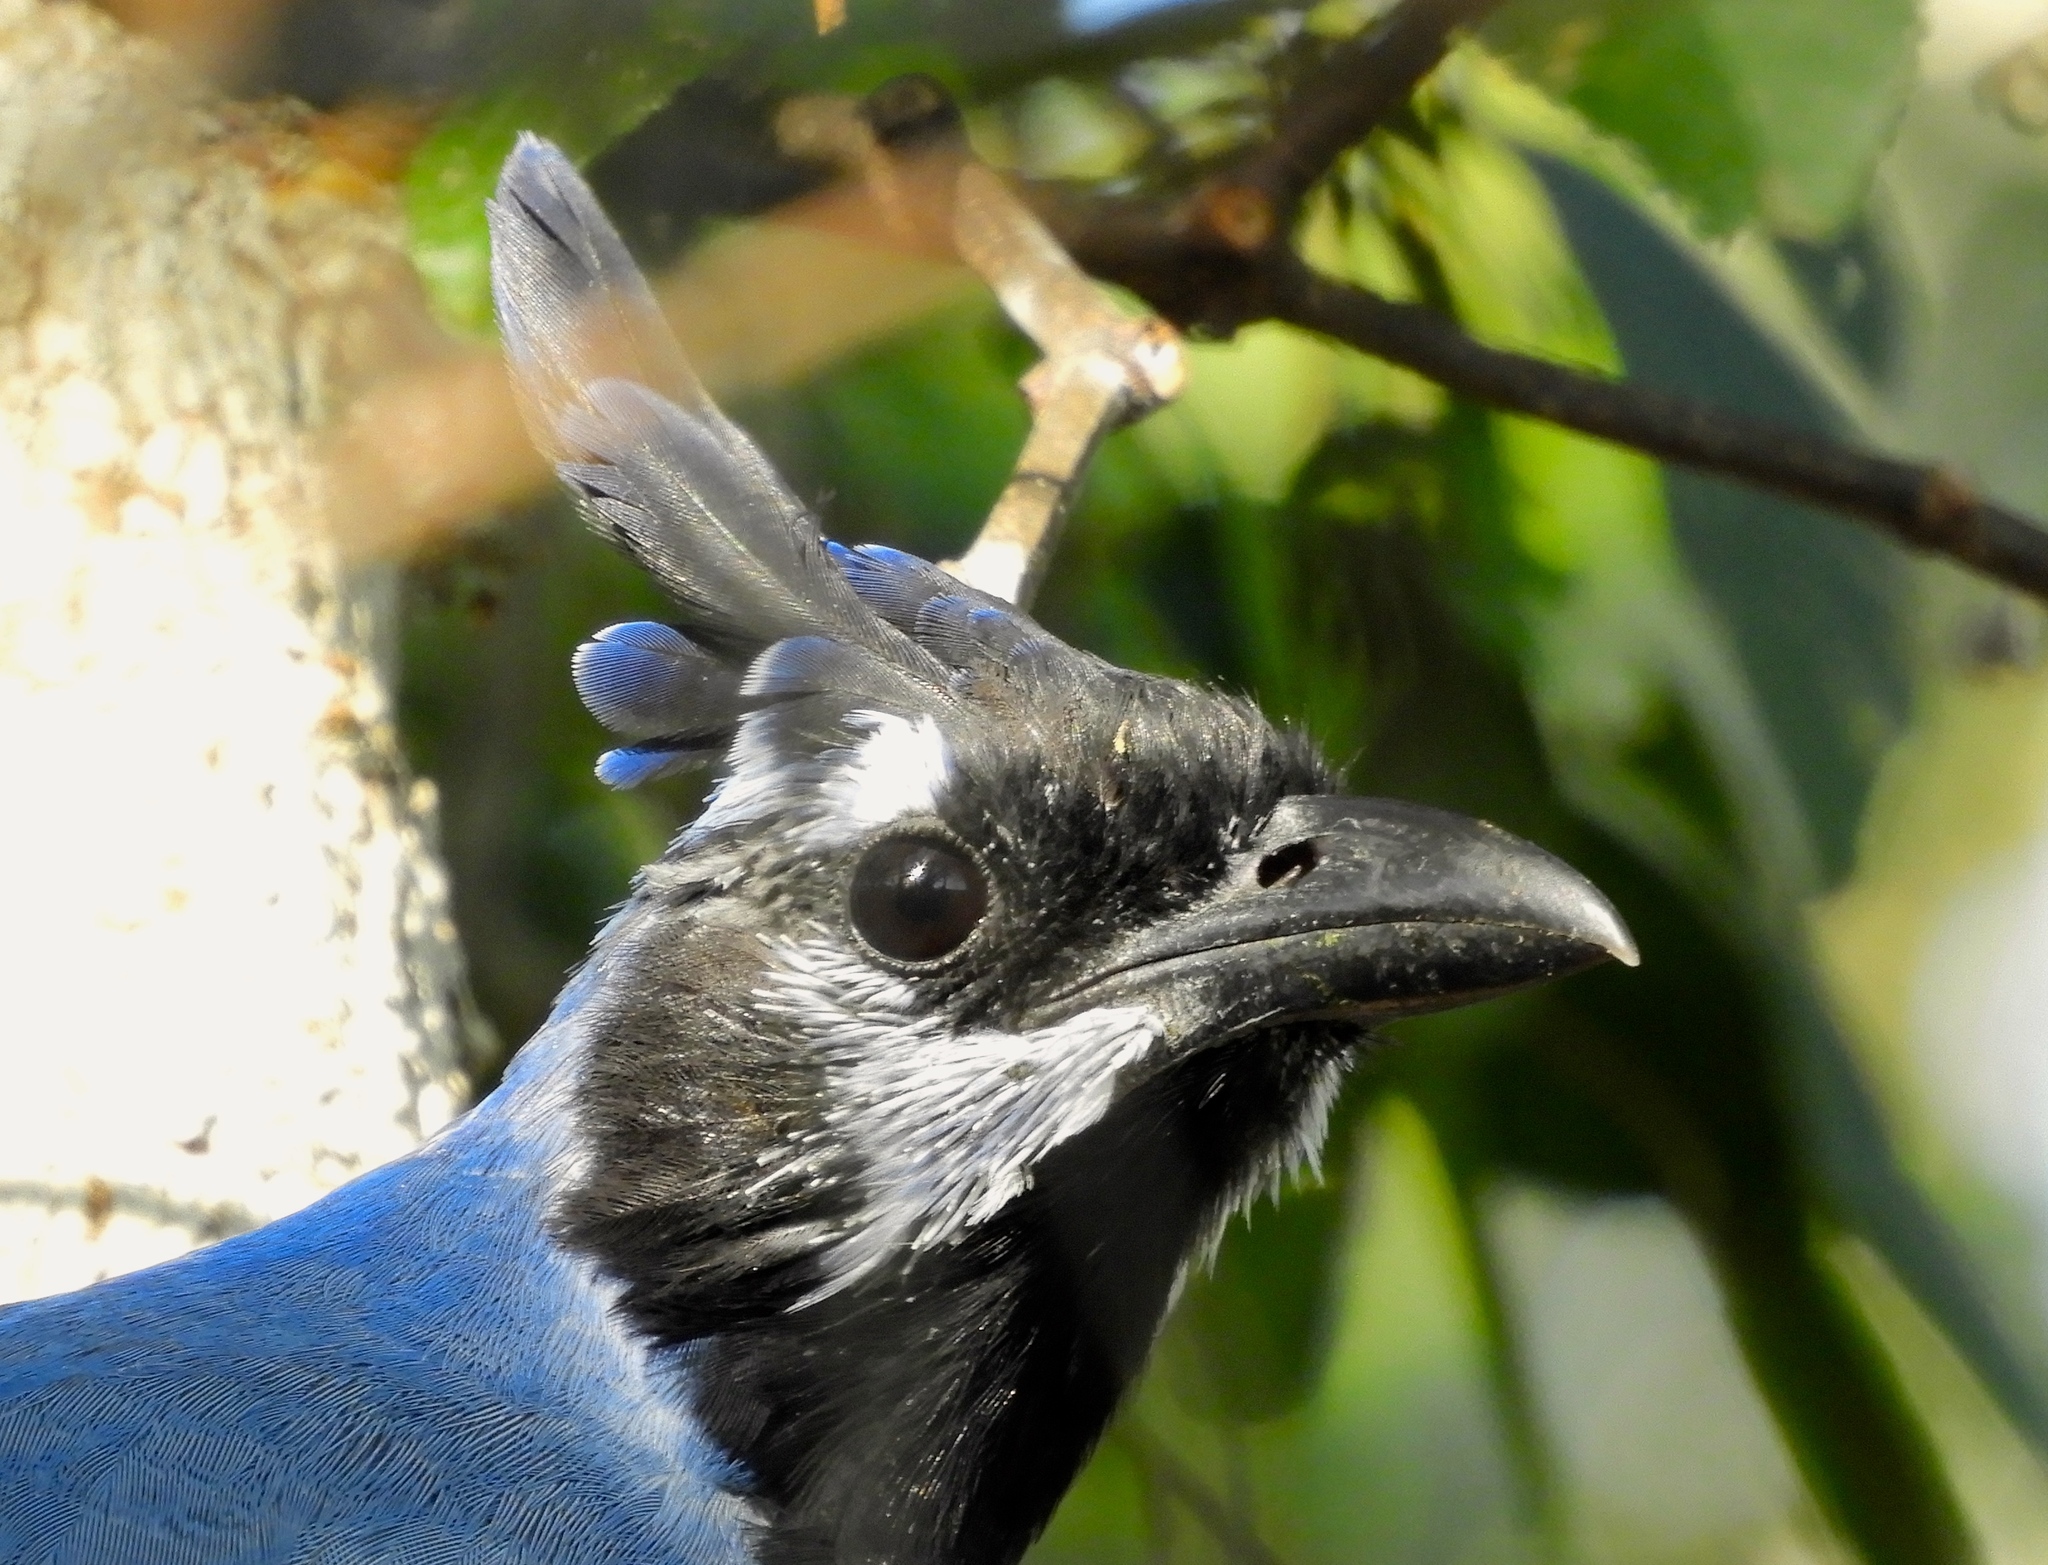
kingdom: Animalia
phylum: Chordata
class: Aves
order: Passeriformes
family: Corvidae
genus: Calocitta
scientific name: Calocitta colliei
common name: Black-throated magpie-jay
